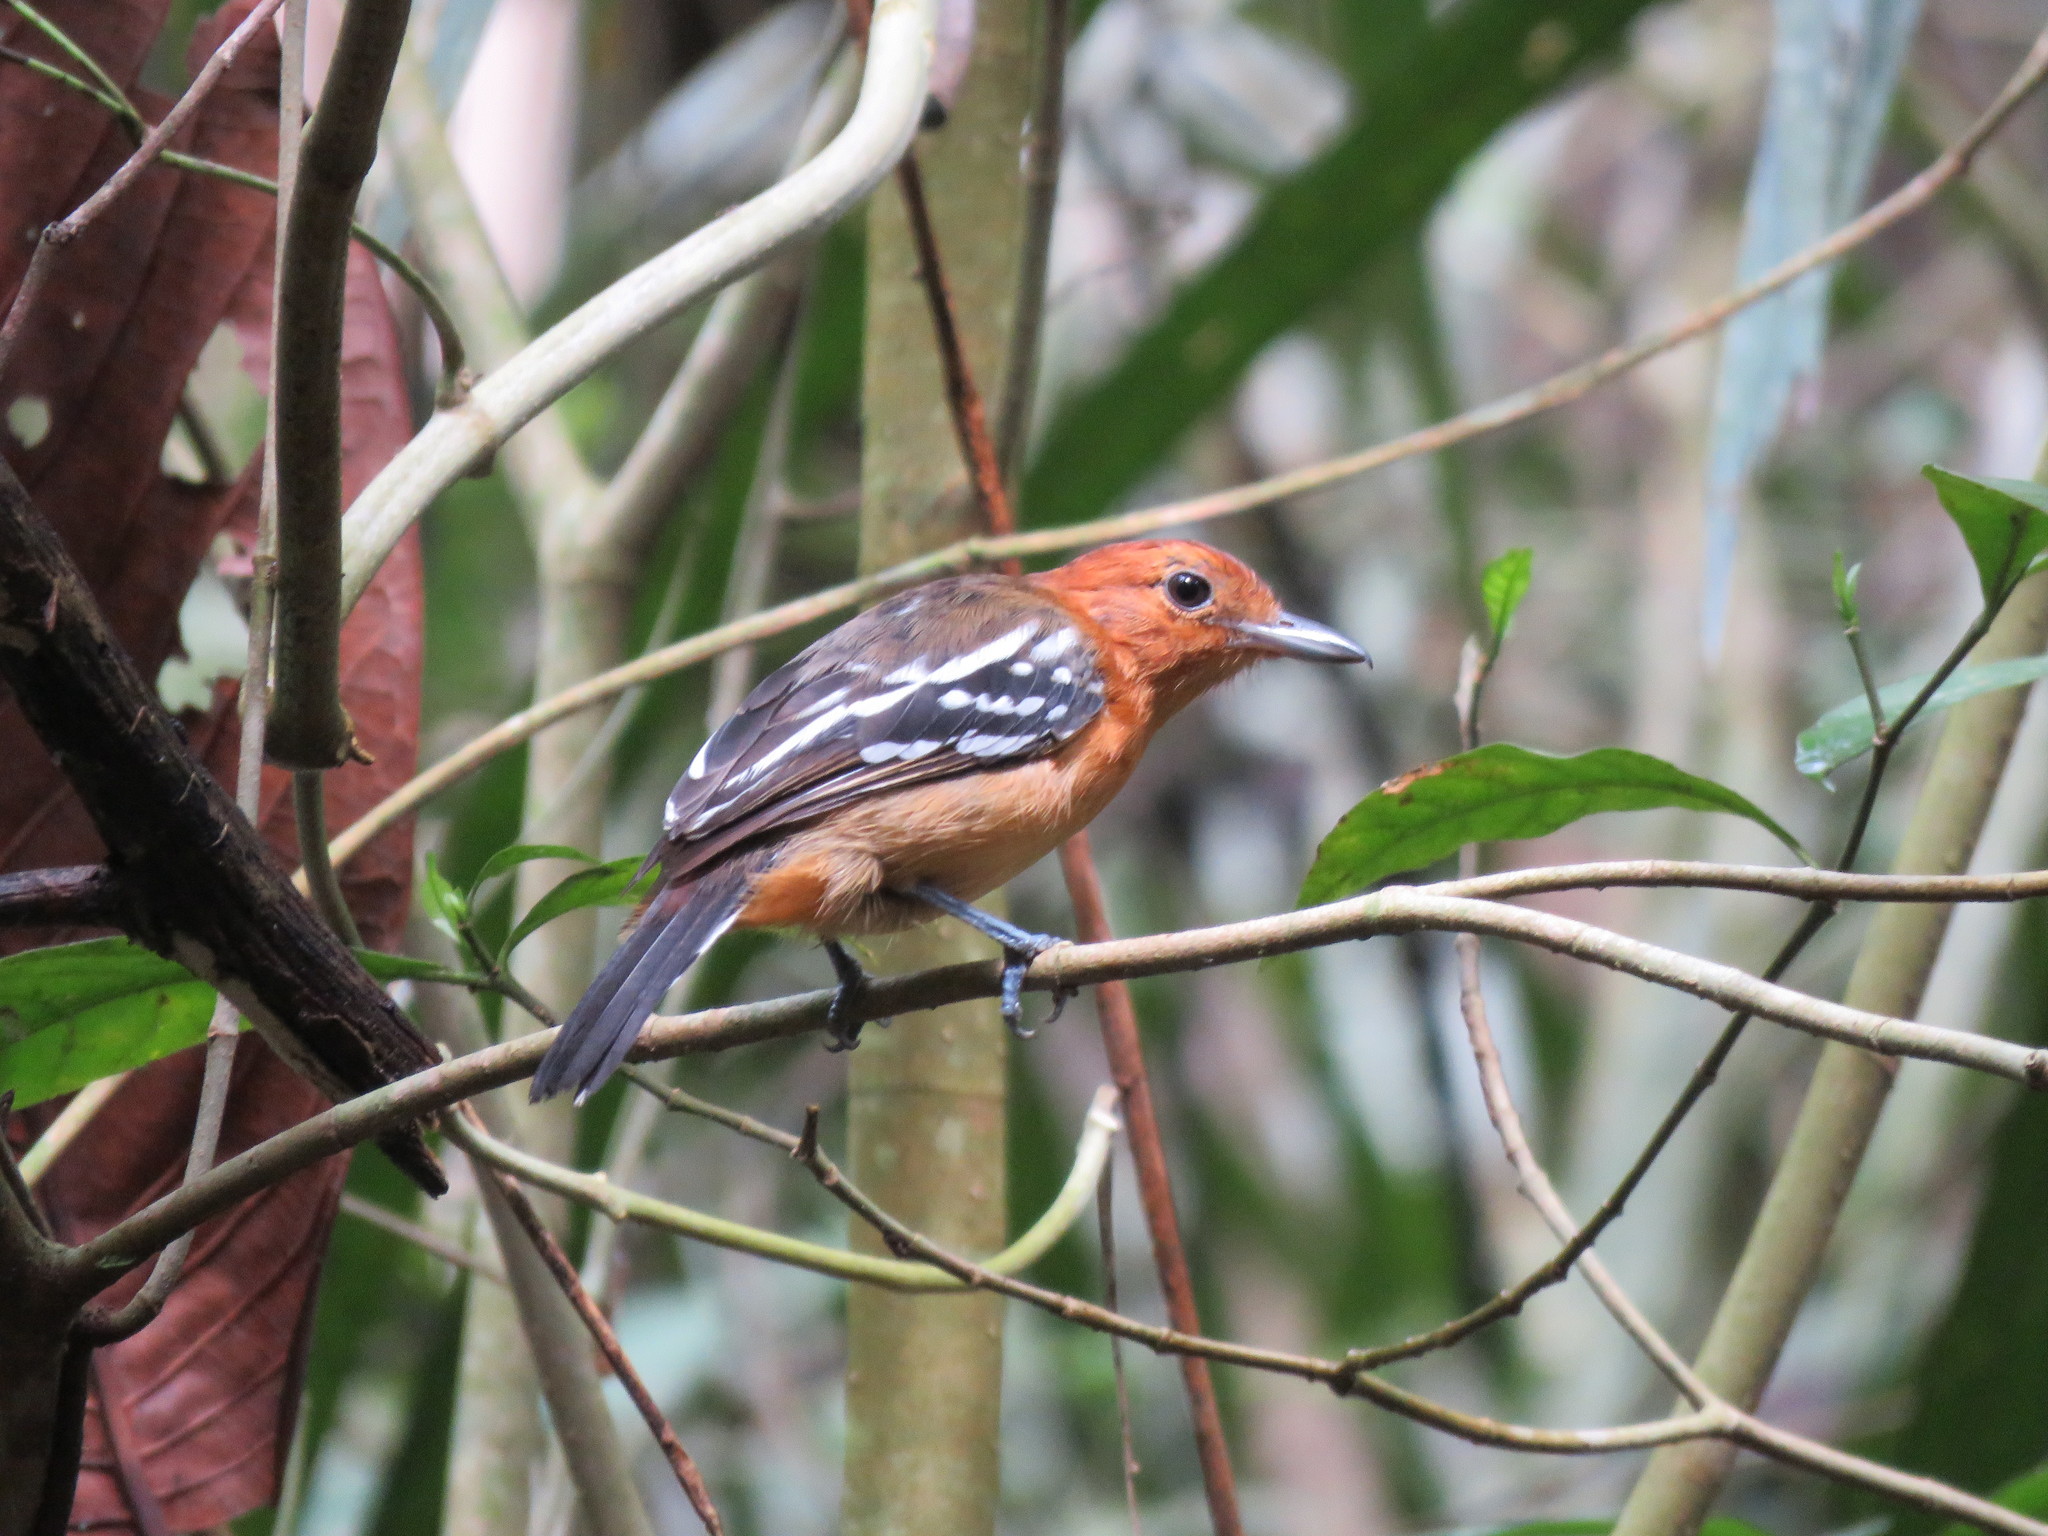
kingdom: Animalia
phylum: Chordata
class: Aves
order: Passeriformes
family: Thamnophilidae
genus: Thamnophilus
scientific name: Thamnophilus amazonicus
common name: Amazonian antshrike
